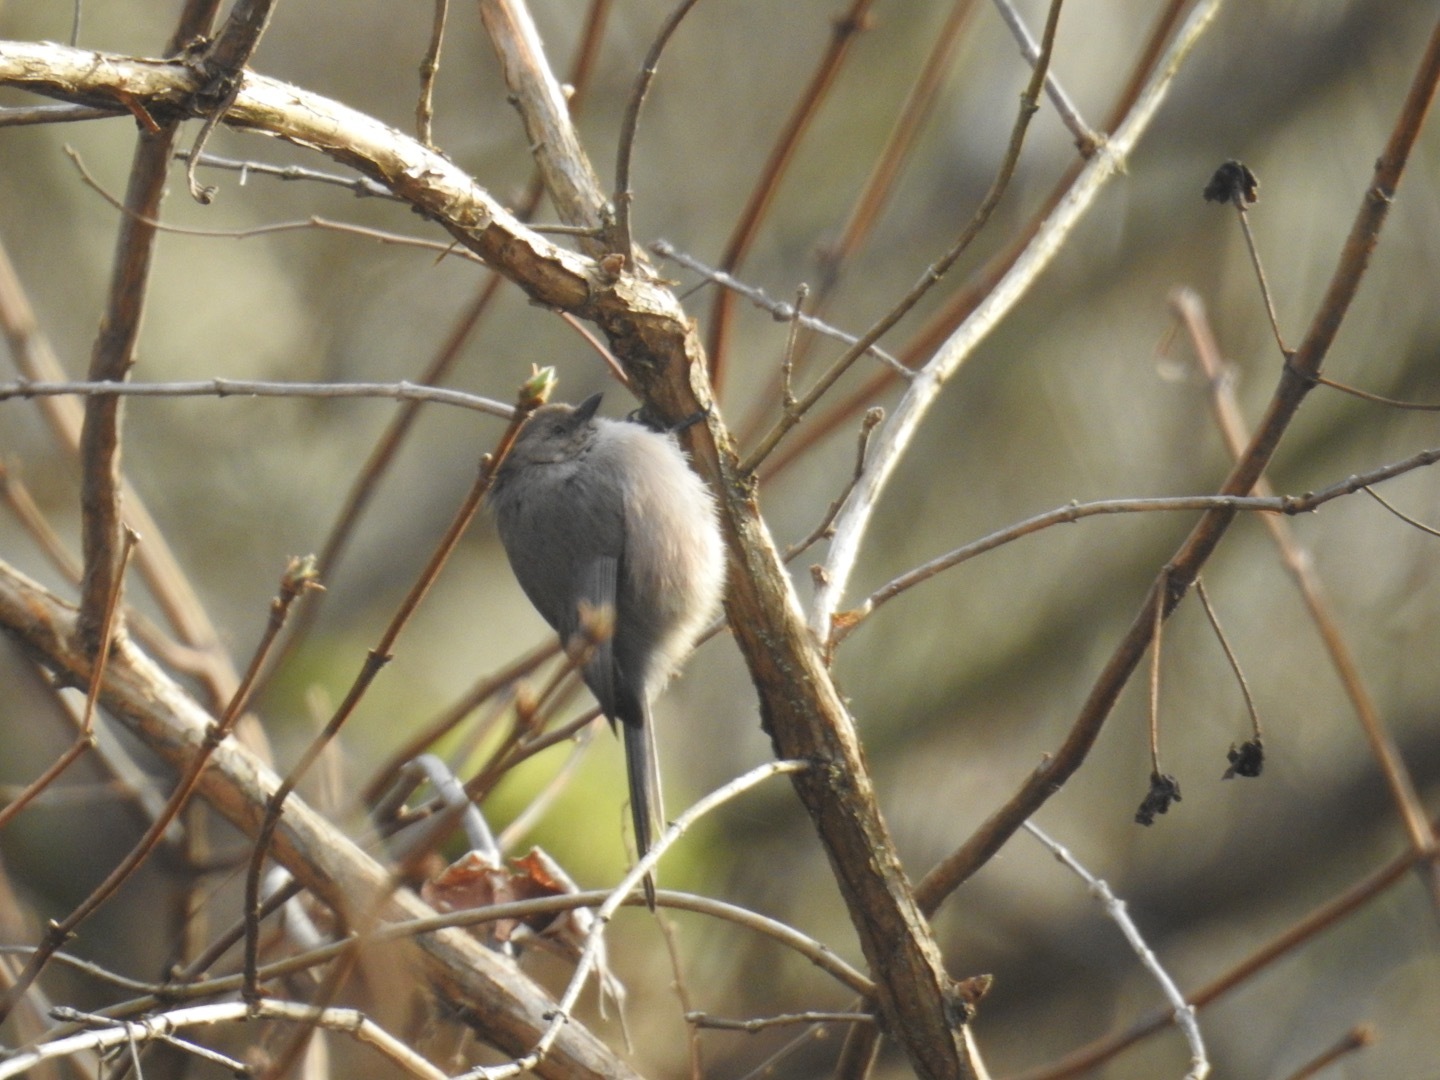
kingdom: Animalia
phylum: Chordata
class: Aves
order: Passeriformes
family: Aegithalidae
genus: Psaltriparus
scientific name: Psaltriparus minimus
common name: American bushtit
